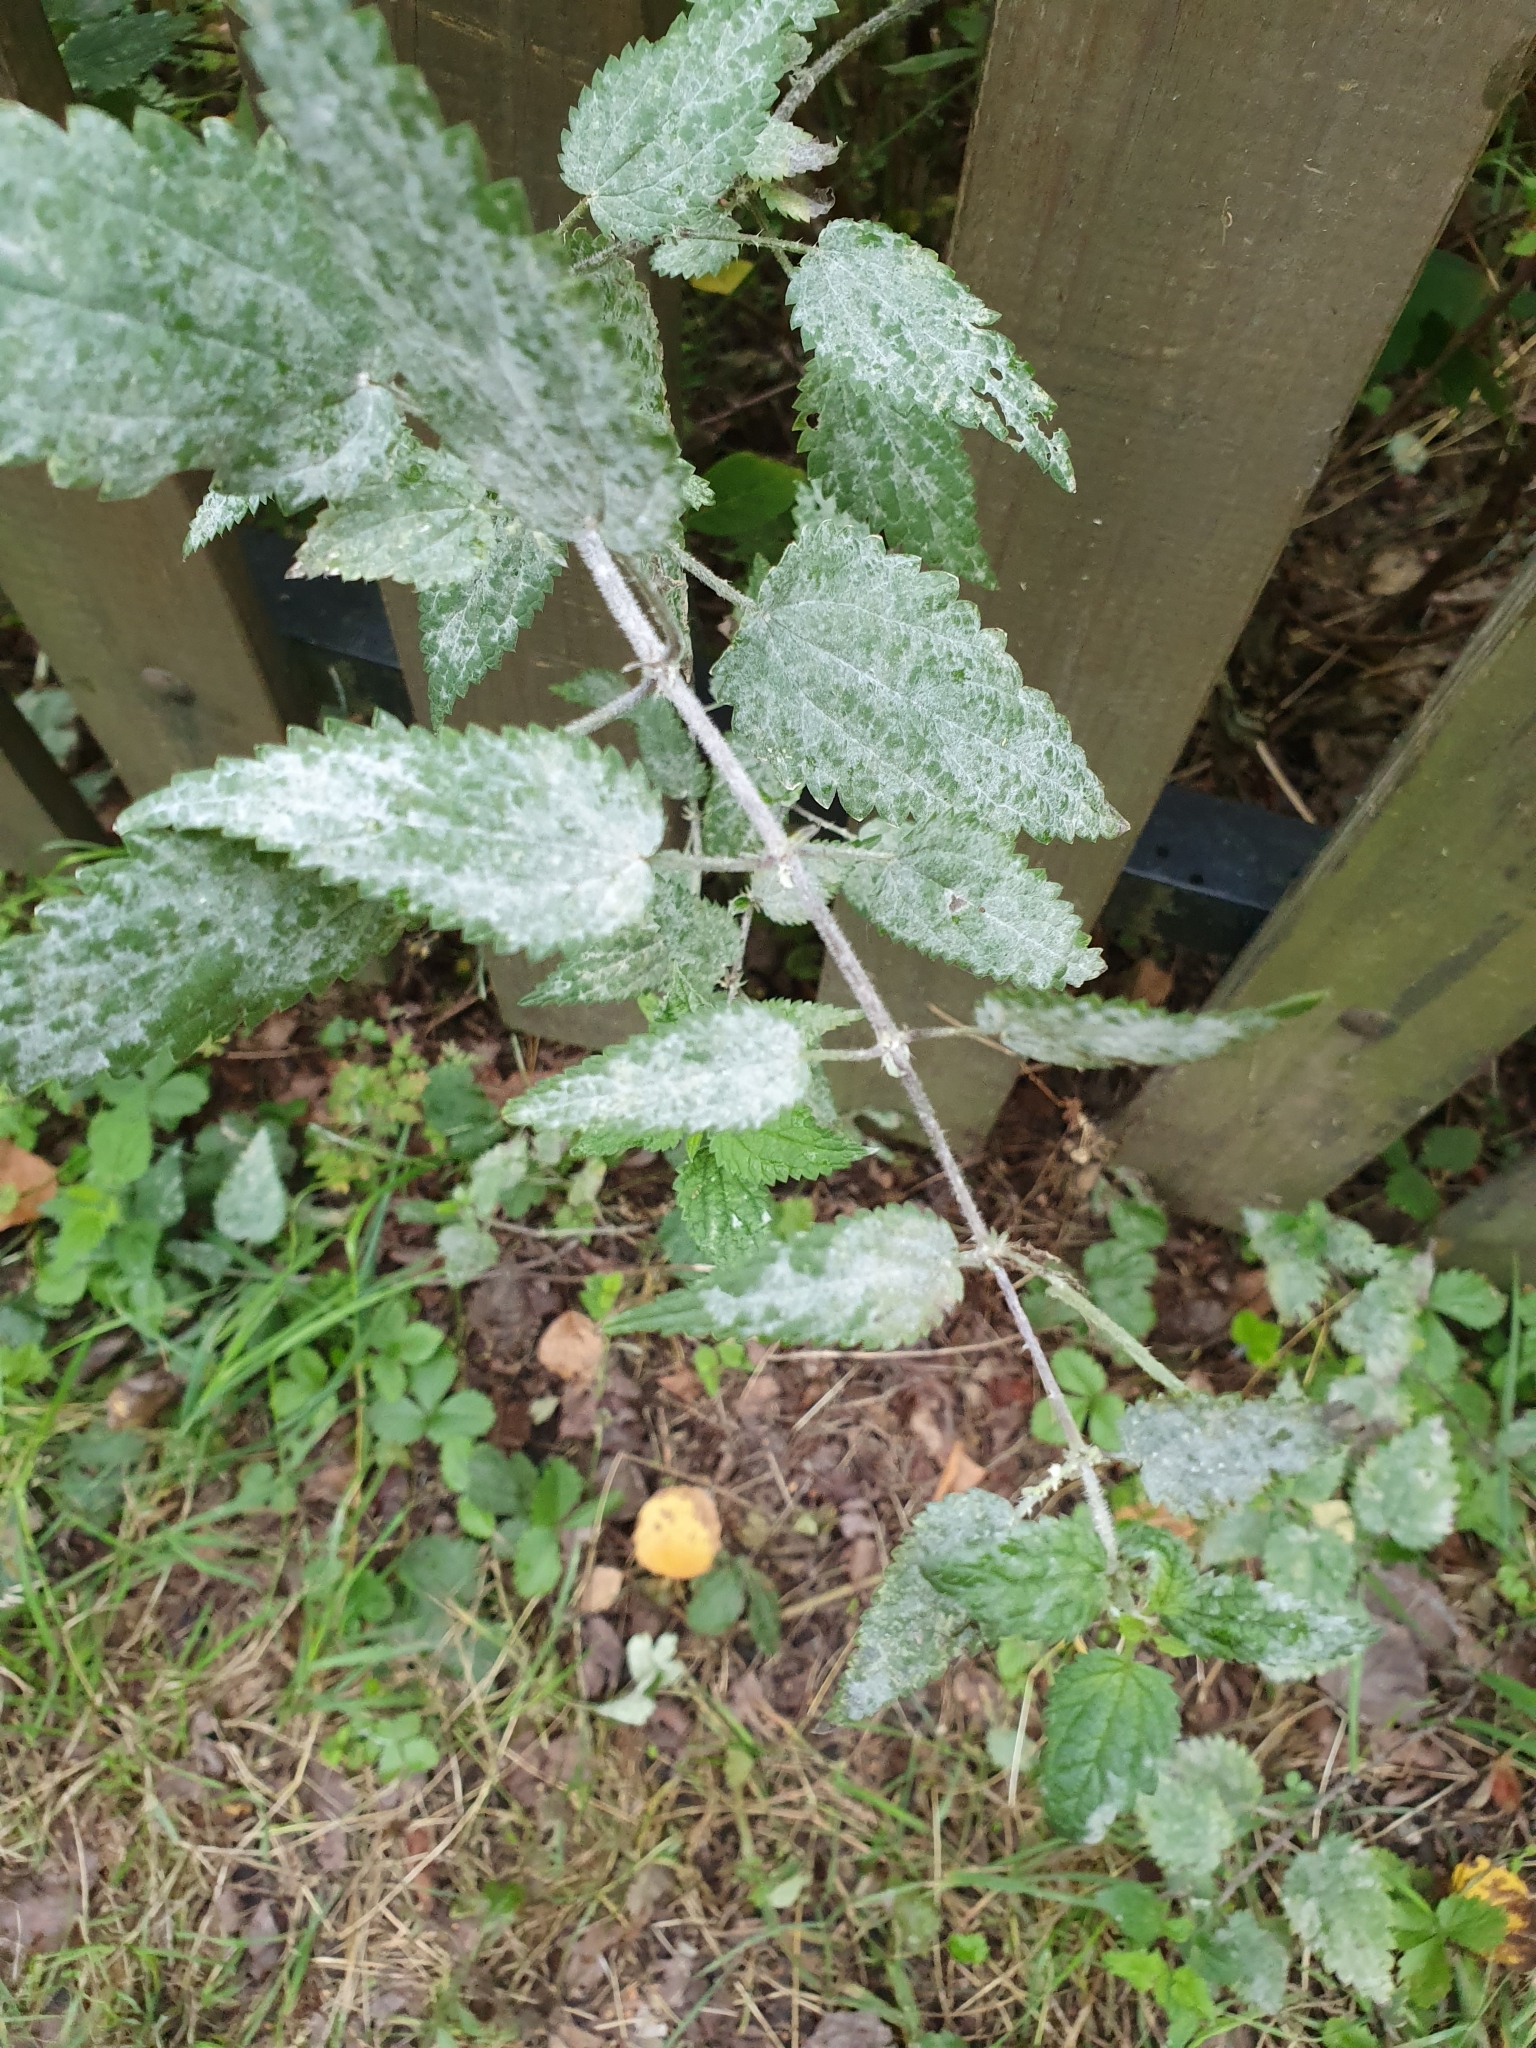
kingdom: Fungi
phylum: Ascomycota
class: Leotiomycetes
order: Helotiales
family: Erysiphaceae
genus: Erysiphe
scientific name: Erysiphe urticae
